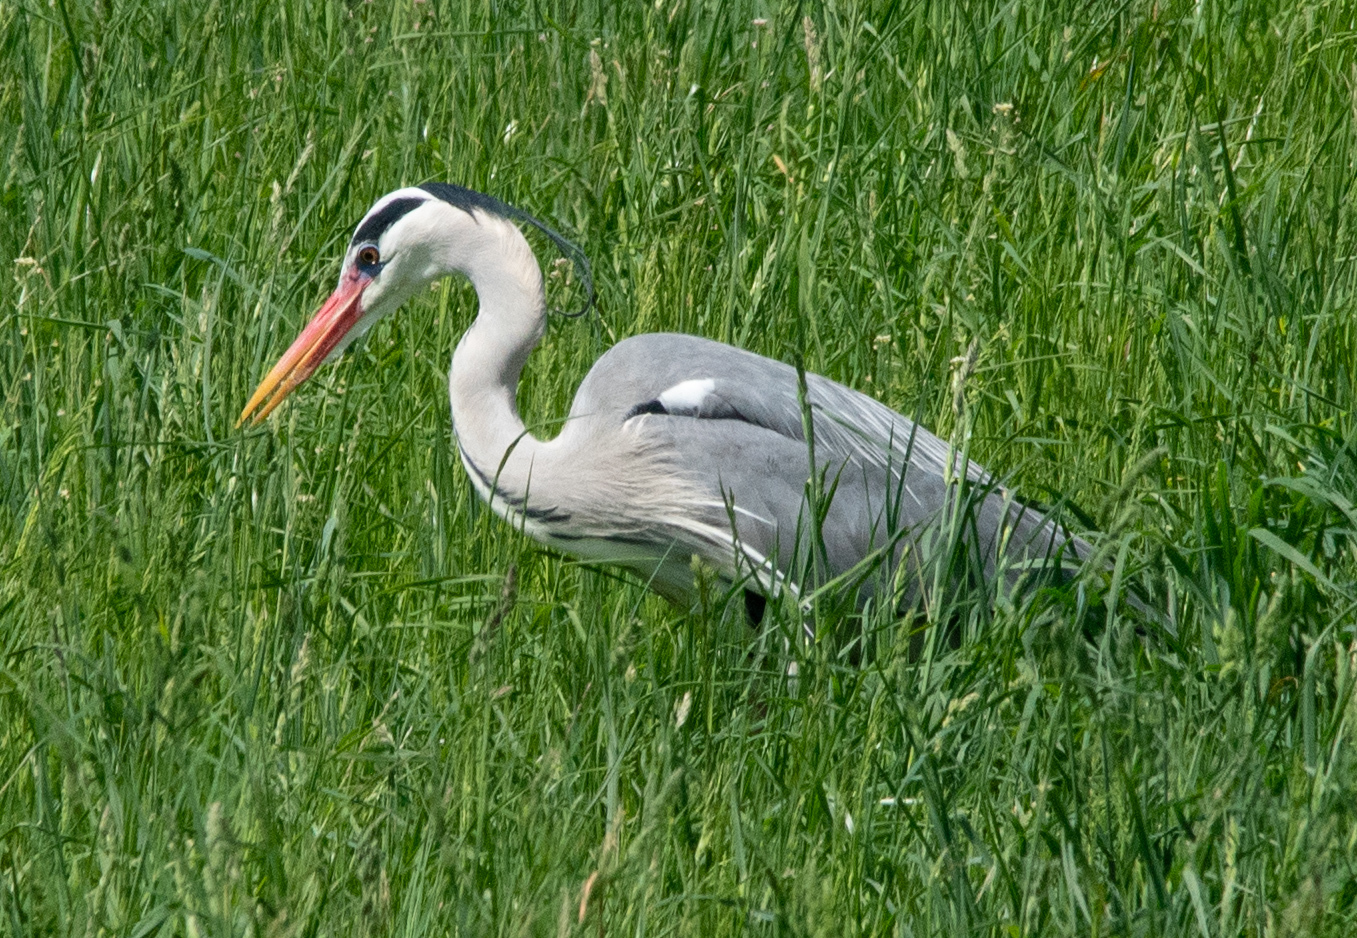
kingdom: Animalia
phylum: Chordata
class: Aves
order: Pelecaniformes
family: Ardeidae
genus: Ardea
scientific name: Ardea cinerea
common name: Grey heron
